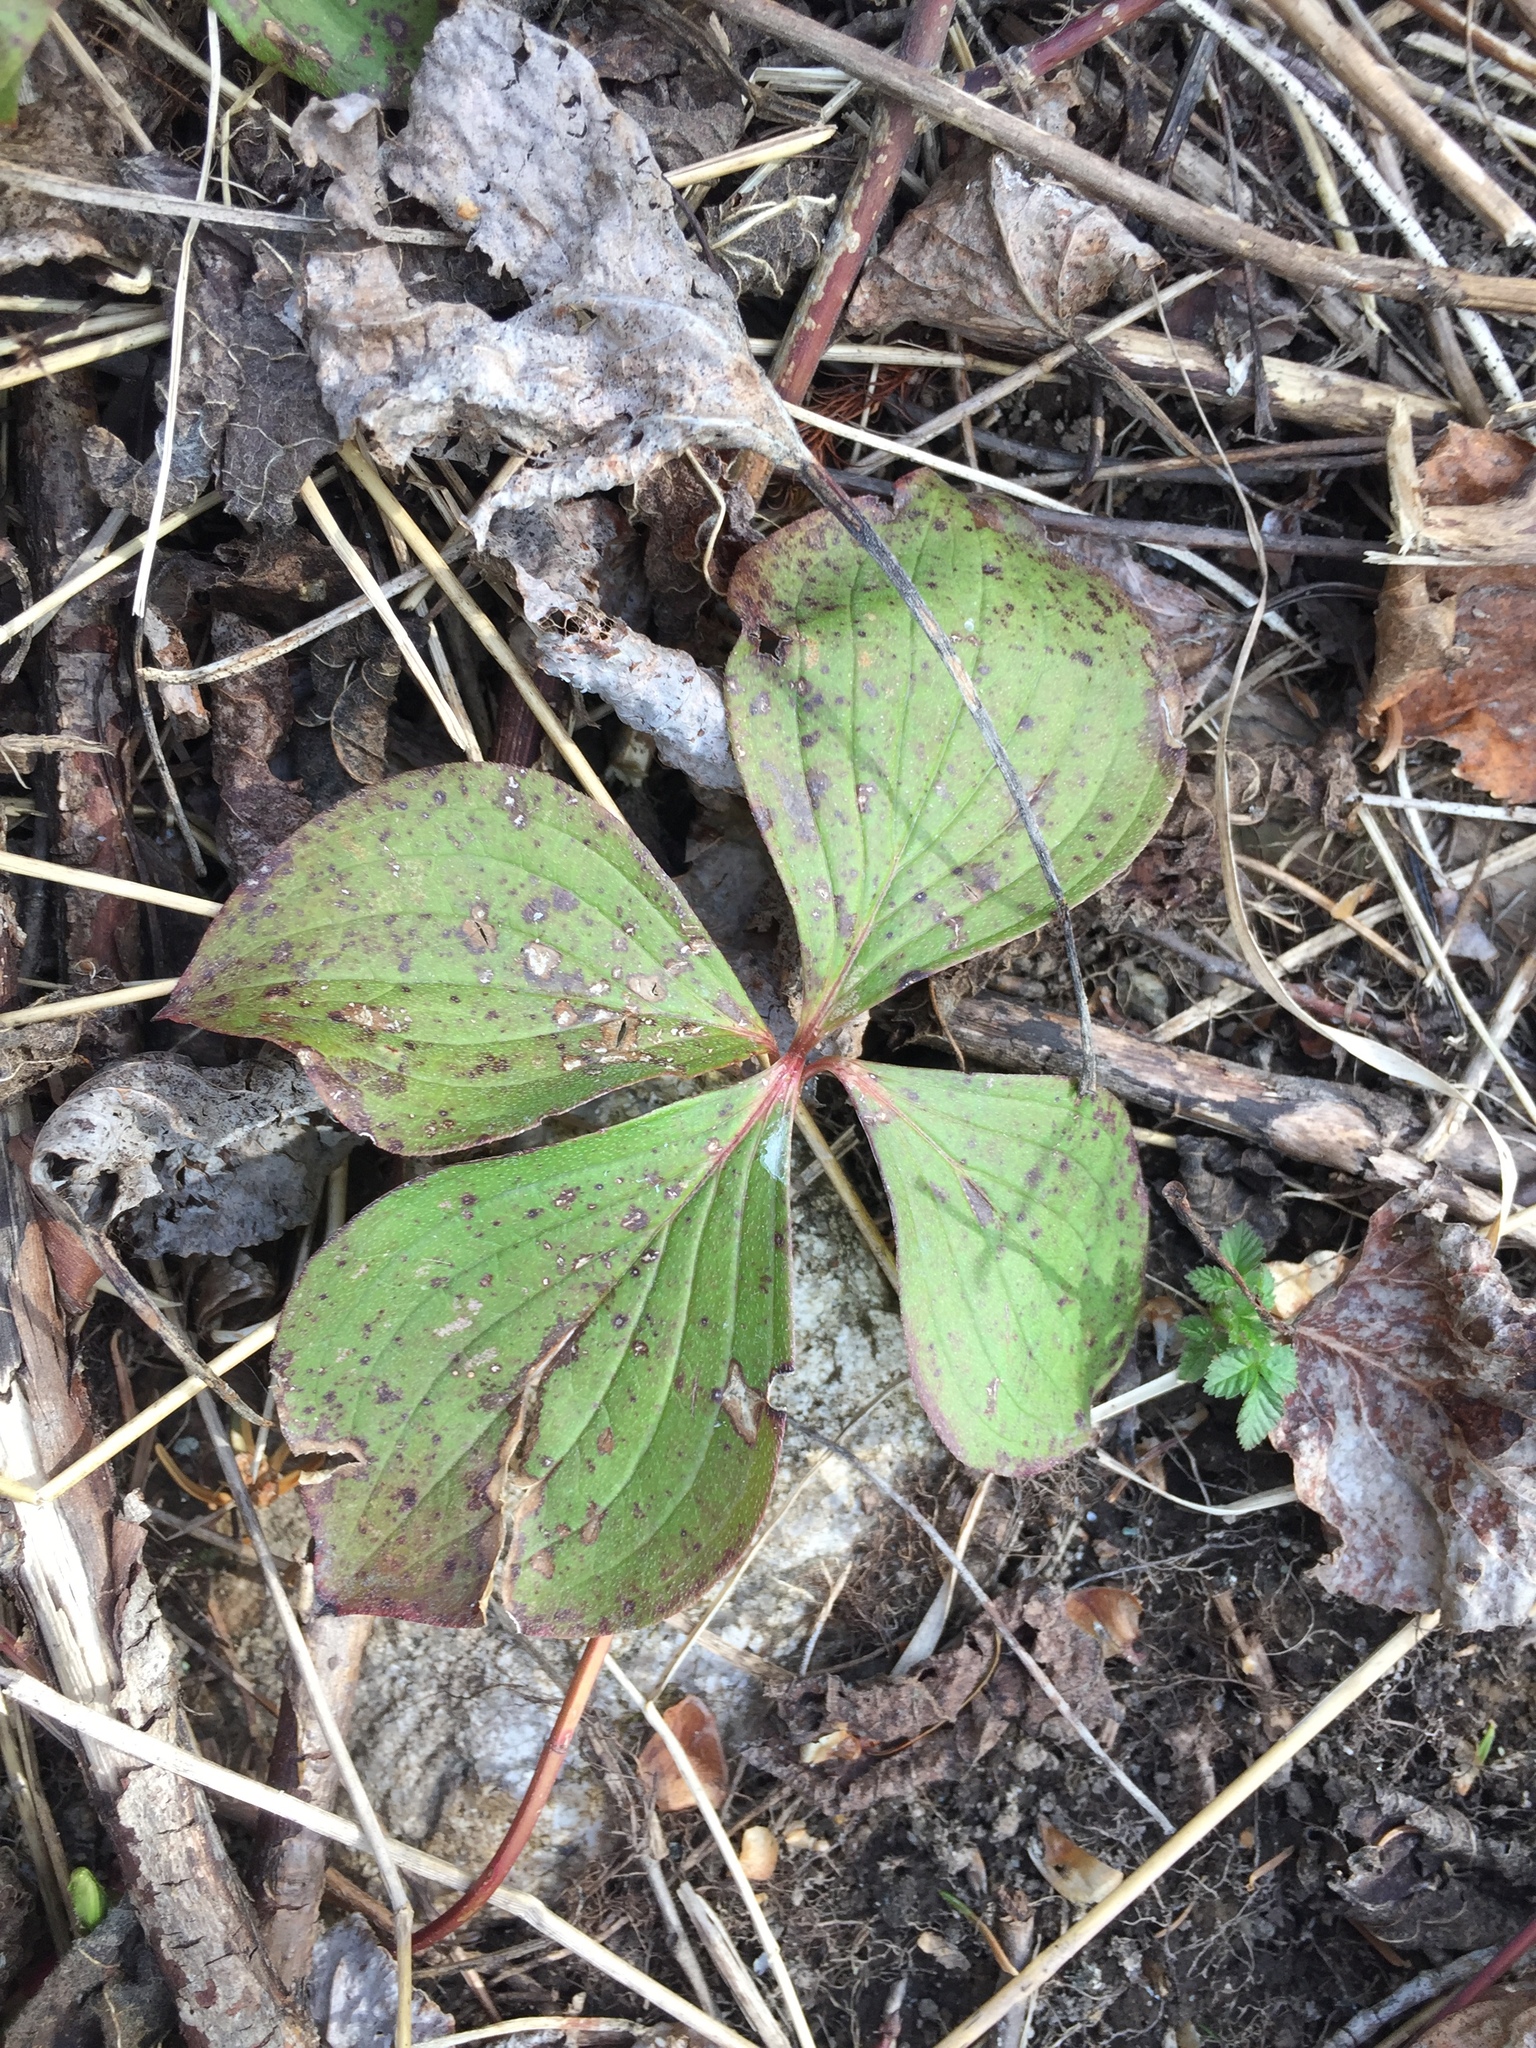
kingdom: Plantae
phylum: Tracheophyta
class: Magnoliopsida
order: Cornales
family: Cornaceae
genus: Cornus
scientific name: Cornus canadensis
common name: Creeping dogwood
